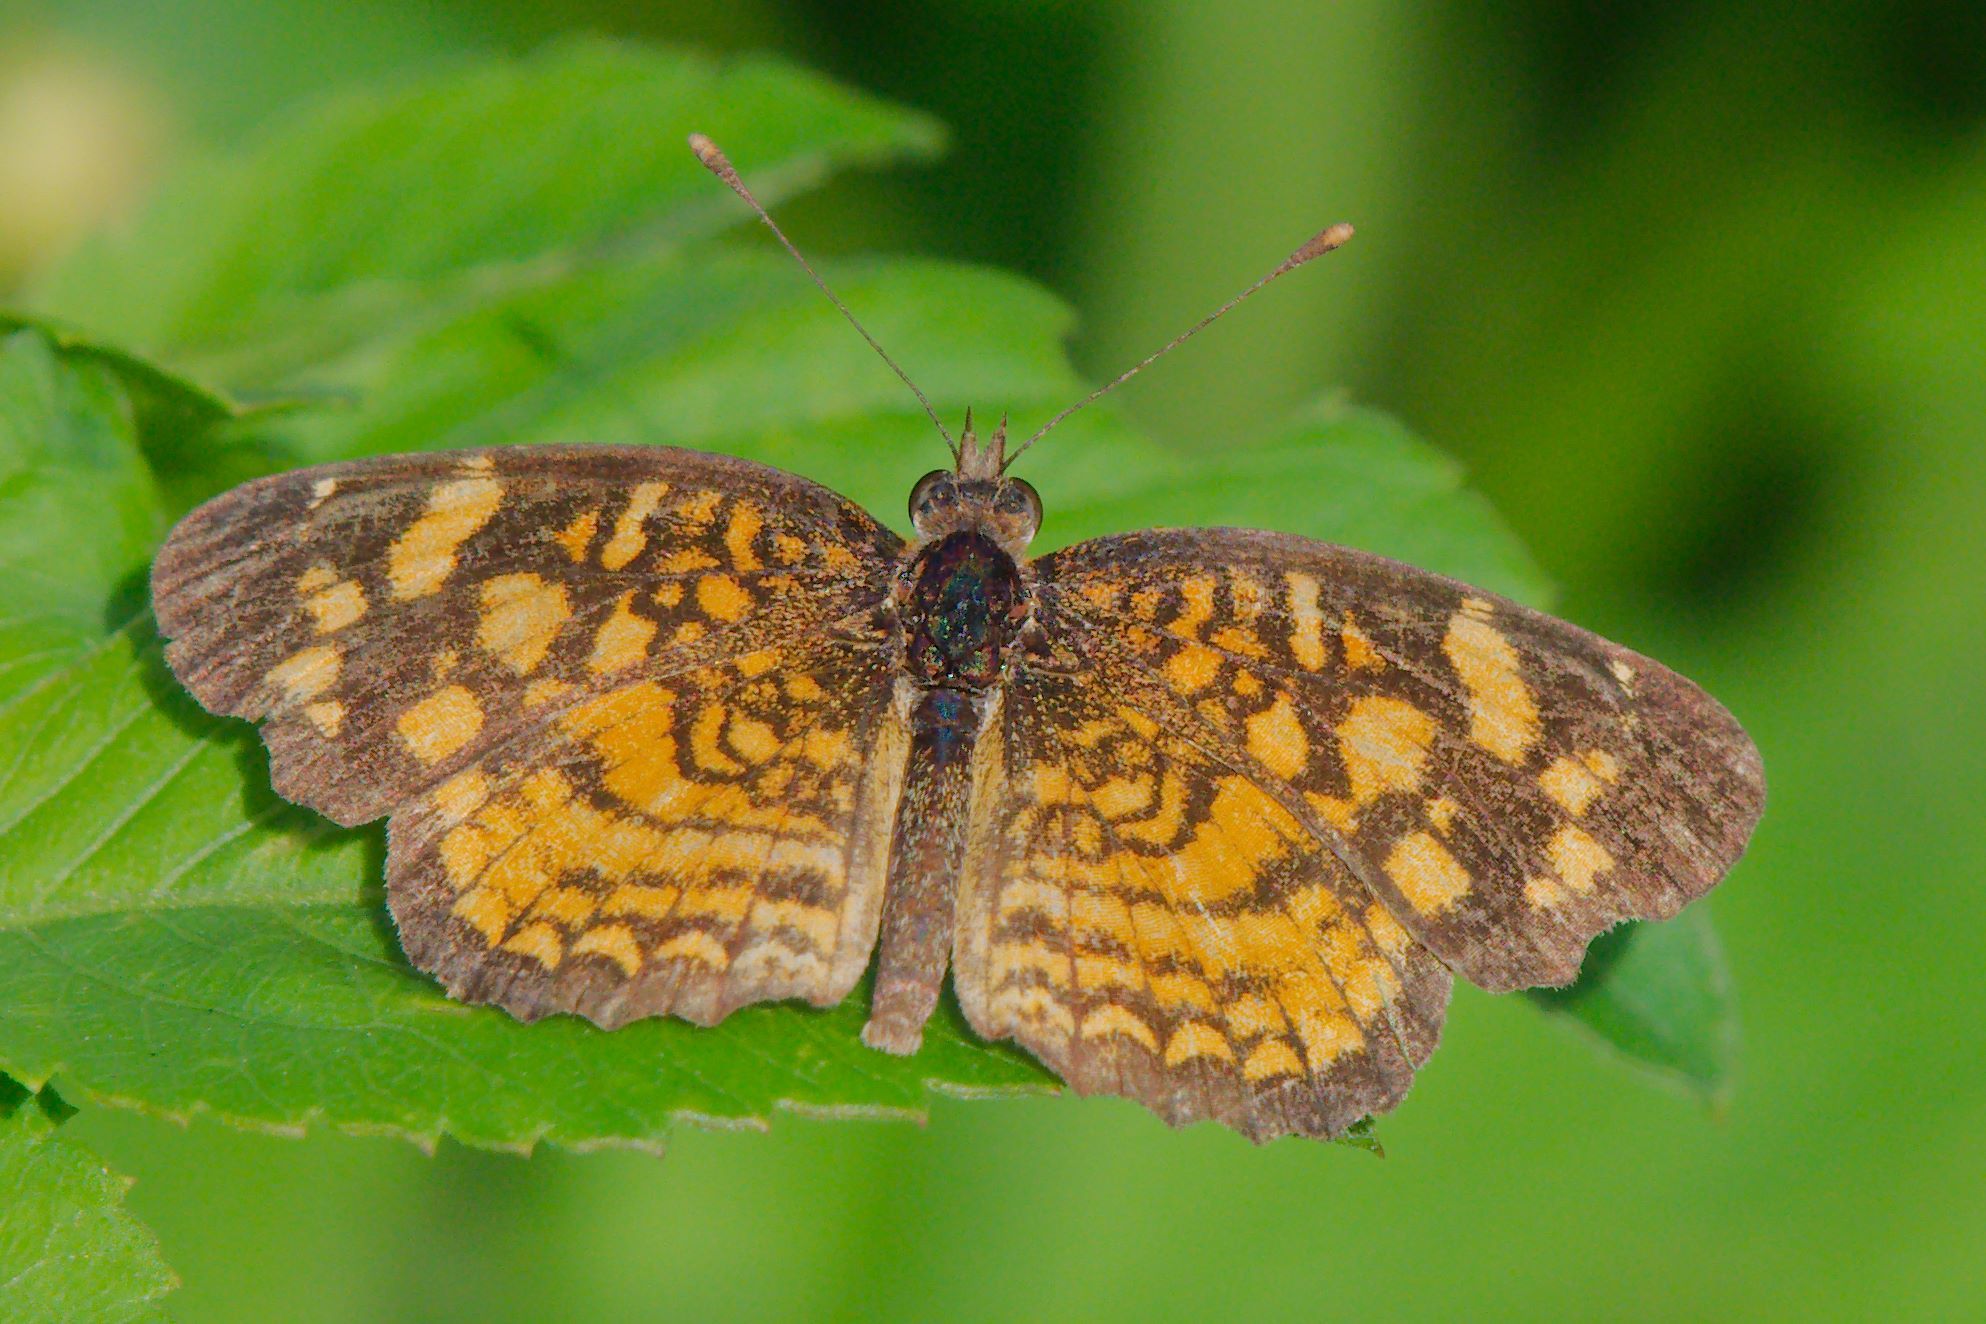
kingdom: Animalia
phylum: Arthropoda
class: Insecta
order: Lepidoptera
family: Nymphalidae
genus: Anthanassa
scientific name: Anthanassa frisia
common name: Cuban crescent
